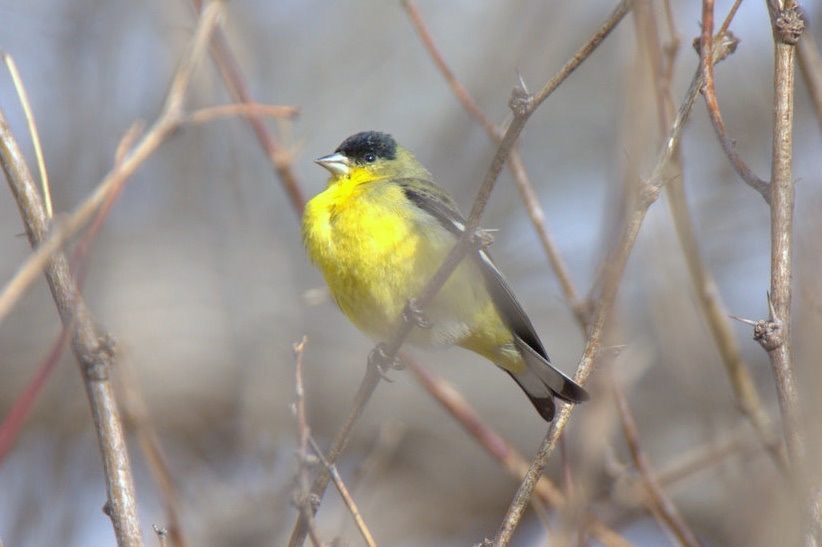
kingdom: Animalia
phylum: Chordata
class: Aves
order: Passeriformes
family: Fringillidae
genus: Spinus
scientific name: Spinus psaltria
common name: Lesser goldfinch
